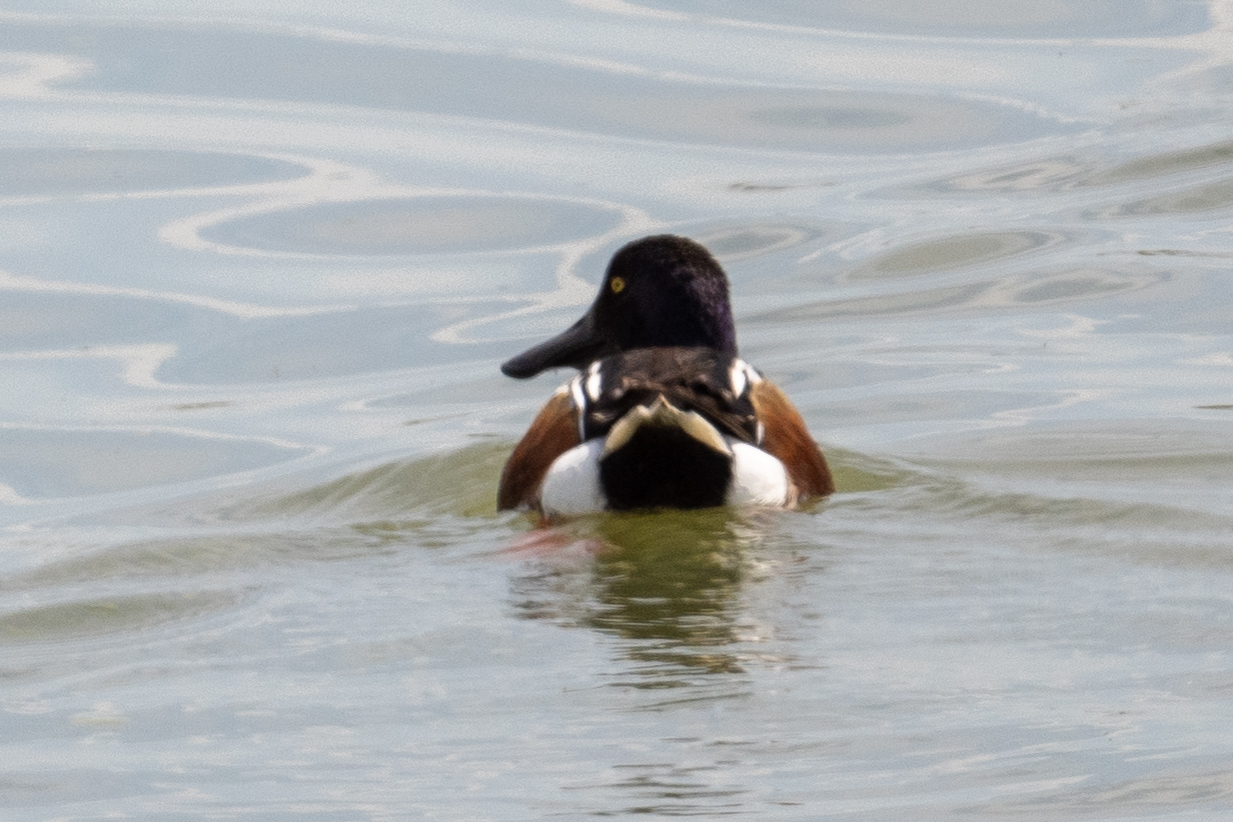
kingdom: Animalia
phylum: Chordata
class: Aves
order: Anseriformes
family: Anatidae
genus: Spatula
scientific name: Spatula clypeata
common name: Northern shoveler
